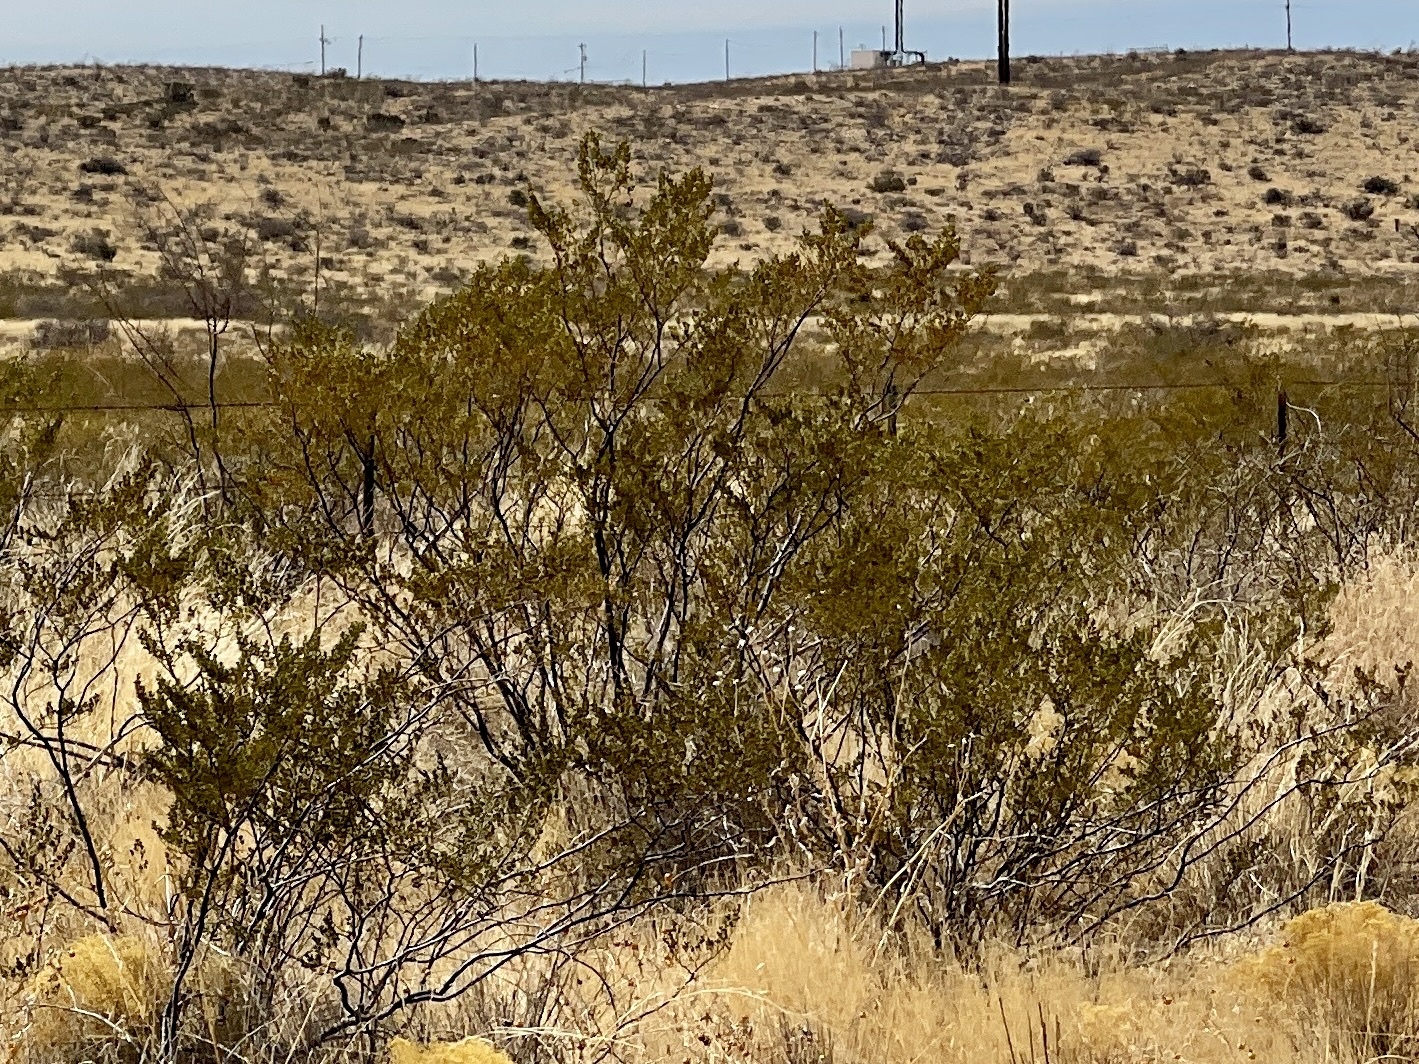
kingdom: Plantae
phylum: Tracheophyta
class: Magnoliopsida
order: Zygophyllales
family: Zygophyllaceae
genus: Larrea
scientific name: Larrea tridentata
